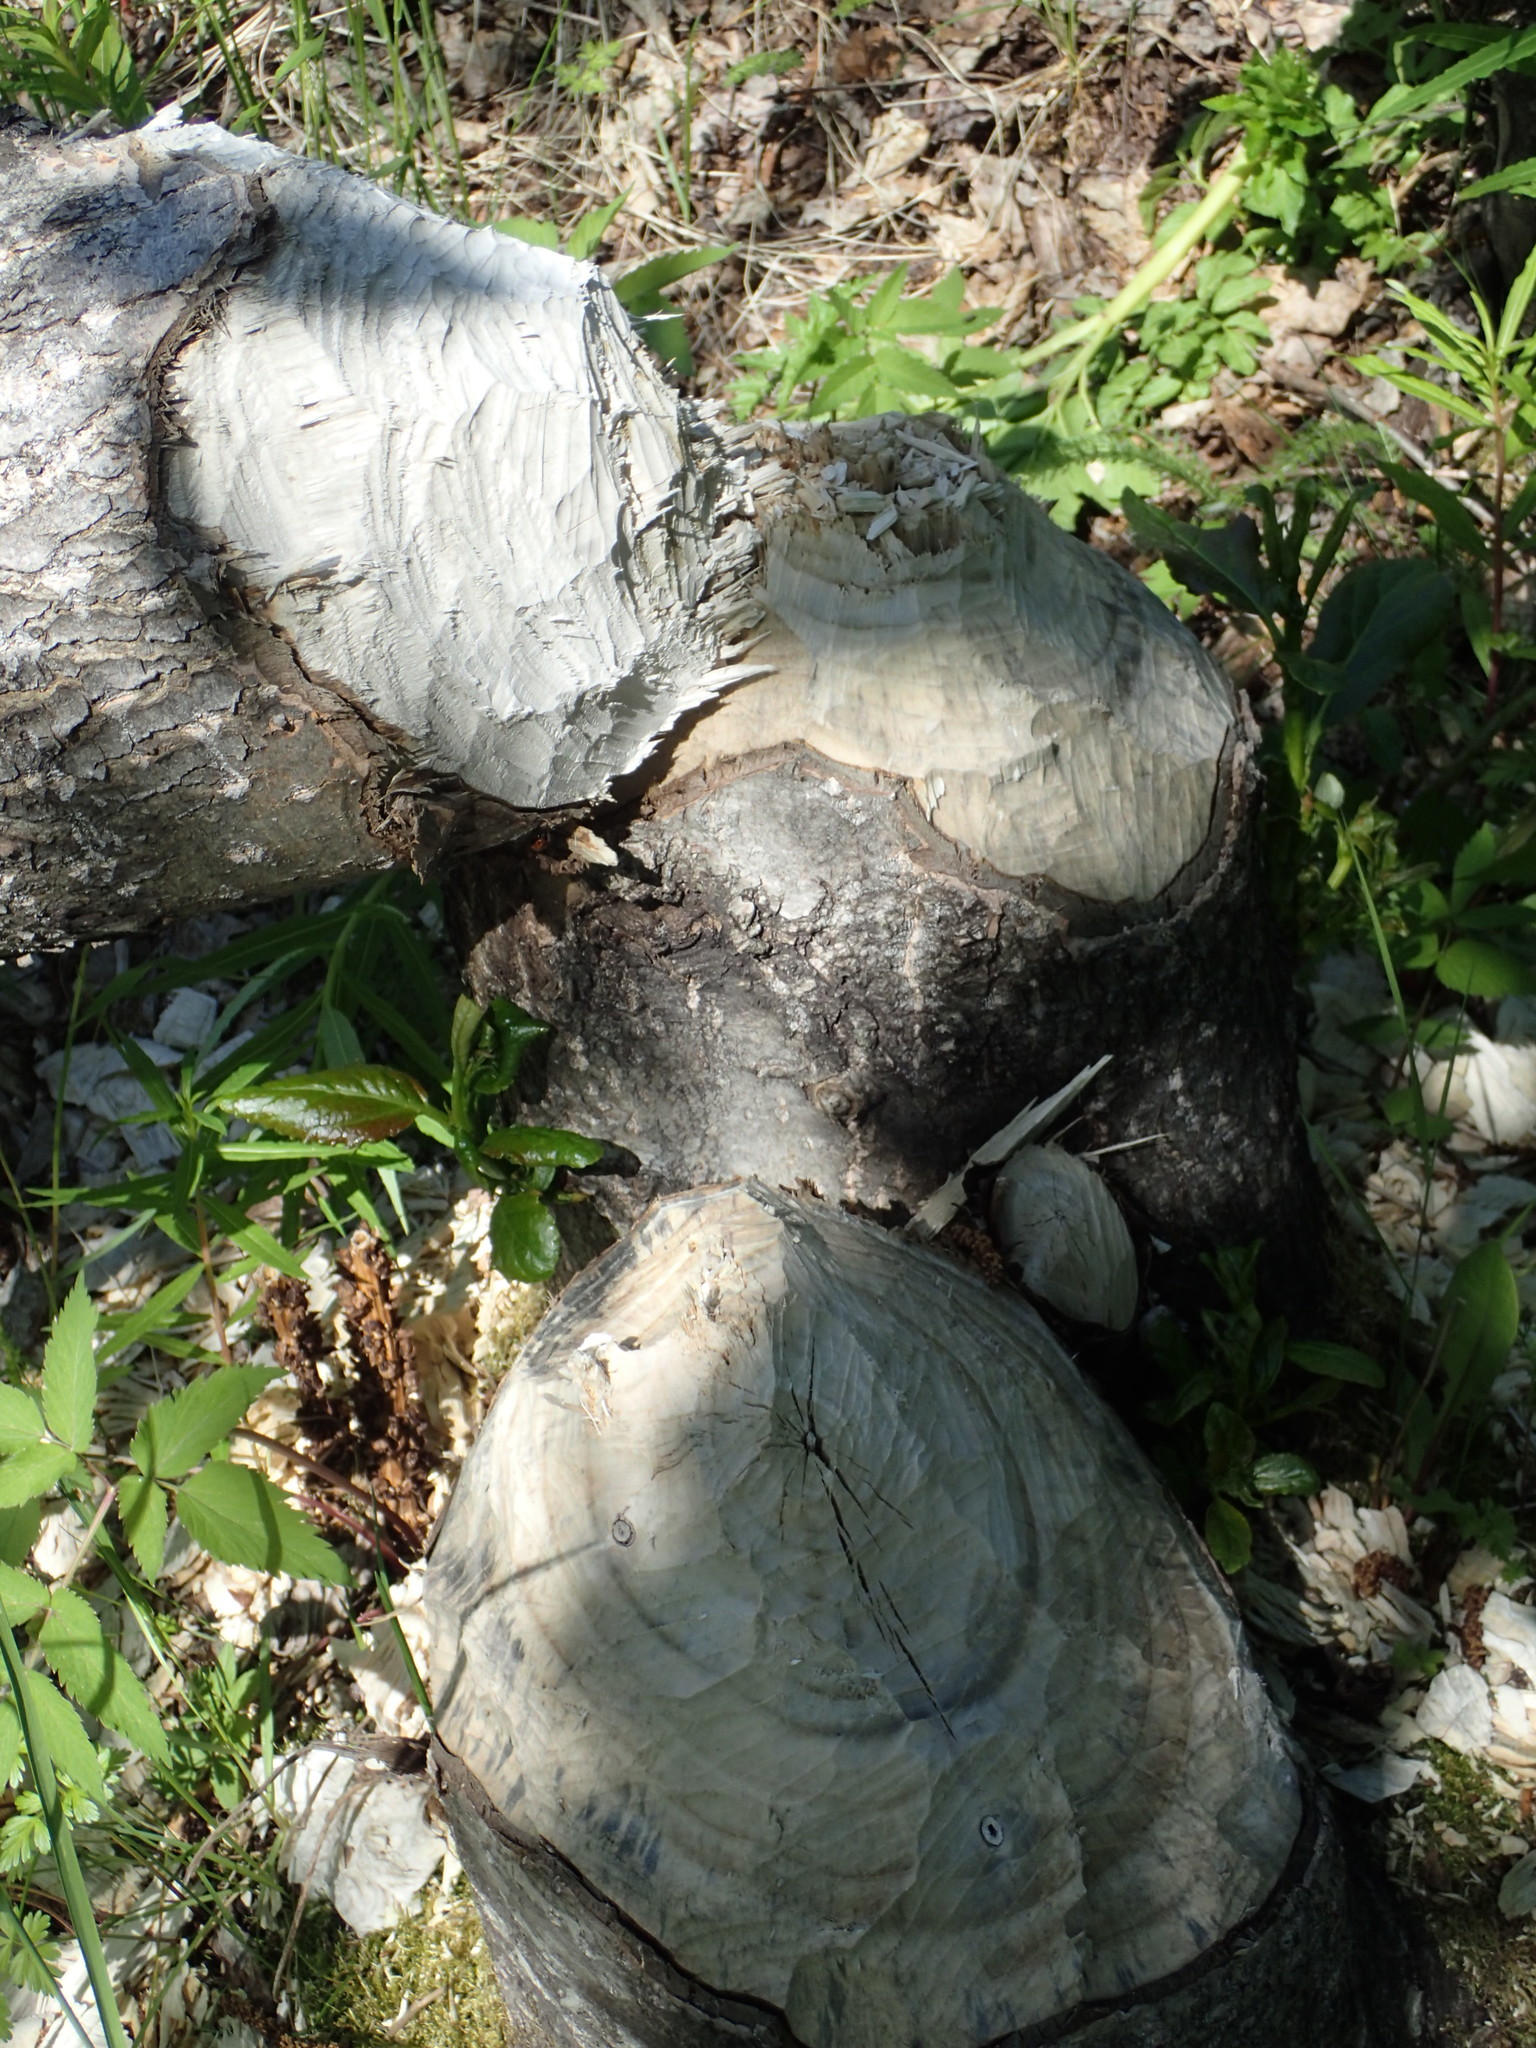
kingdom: Animalia
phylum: Chordata
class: Mammalia
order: Rodentia
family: Castoridae
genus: Castor
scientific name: Castor canadensis
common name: American beaver
